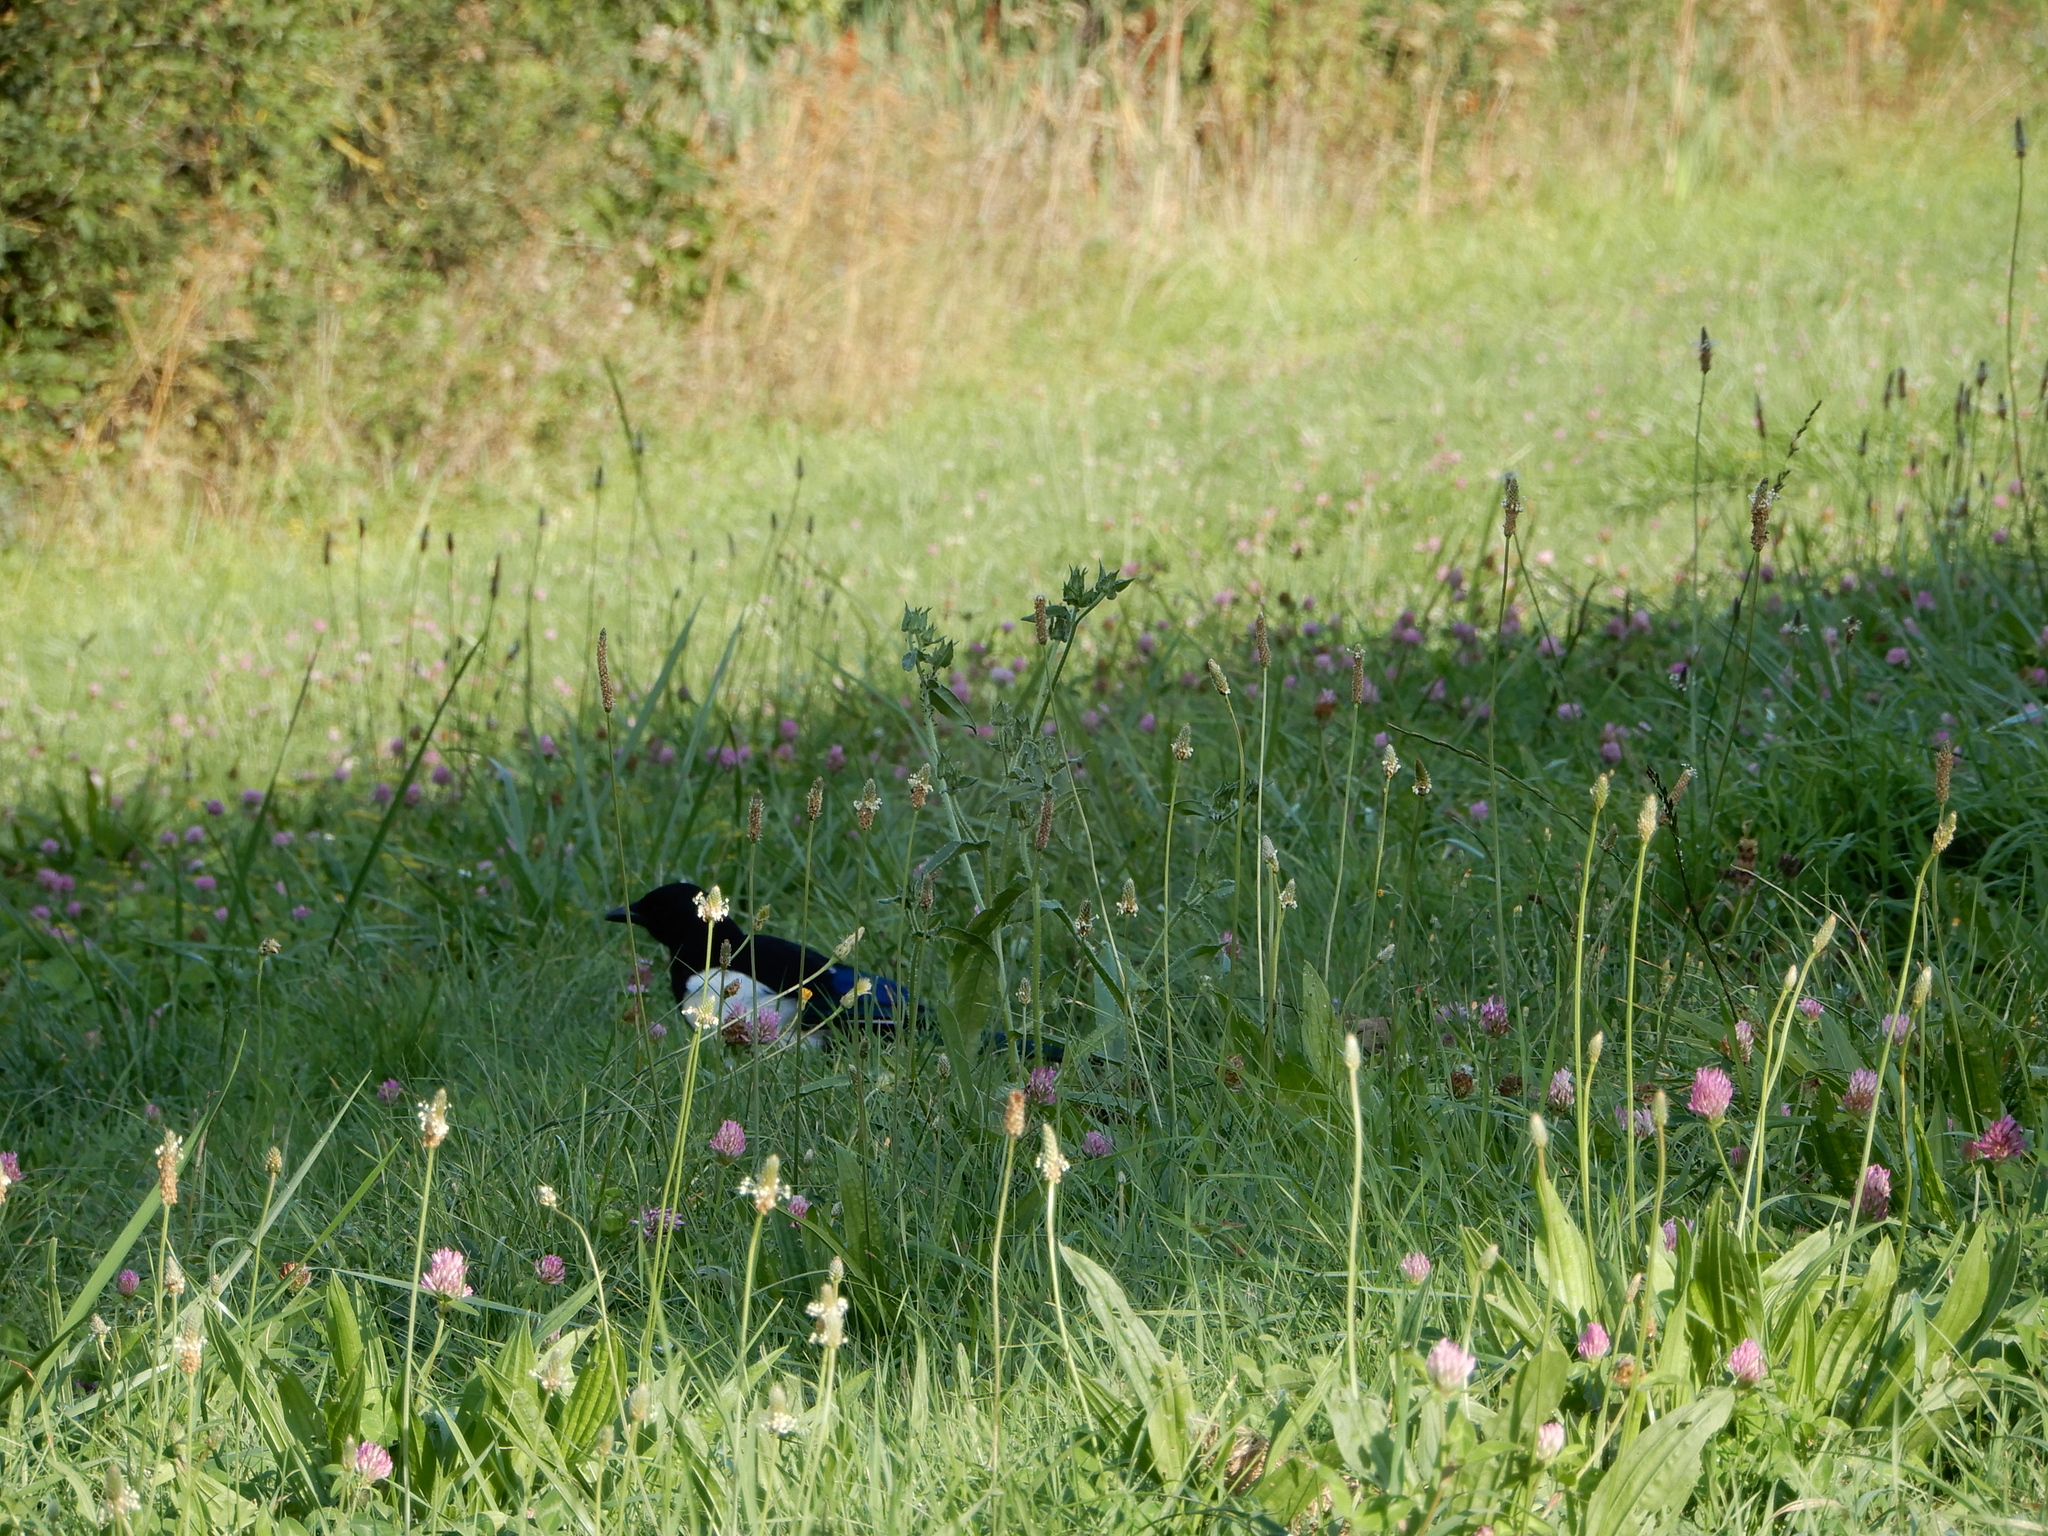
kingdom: Animalia
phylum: Chordata
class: Aves
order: Passeriformes
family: Corvidae
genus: Pica
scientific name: Pica pica
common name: Eurasian magpie
